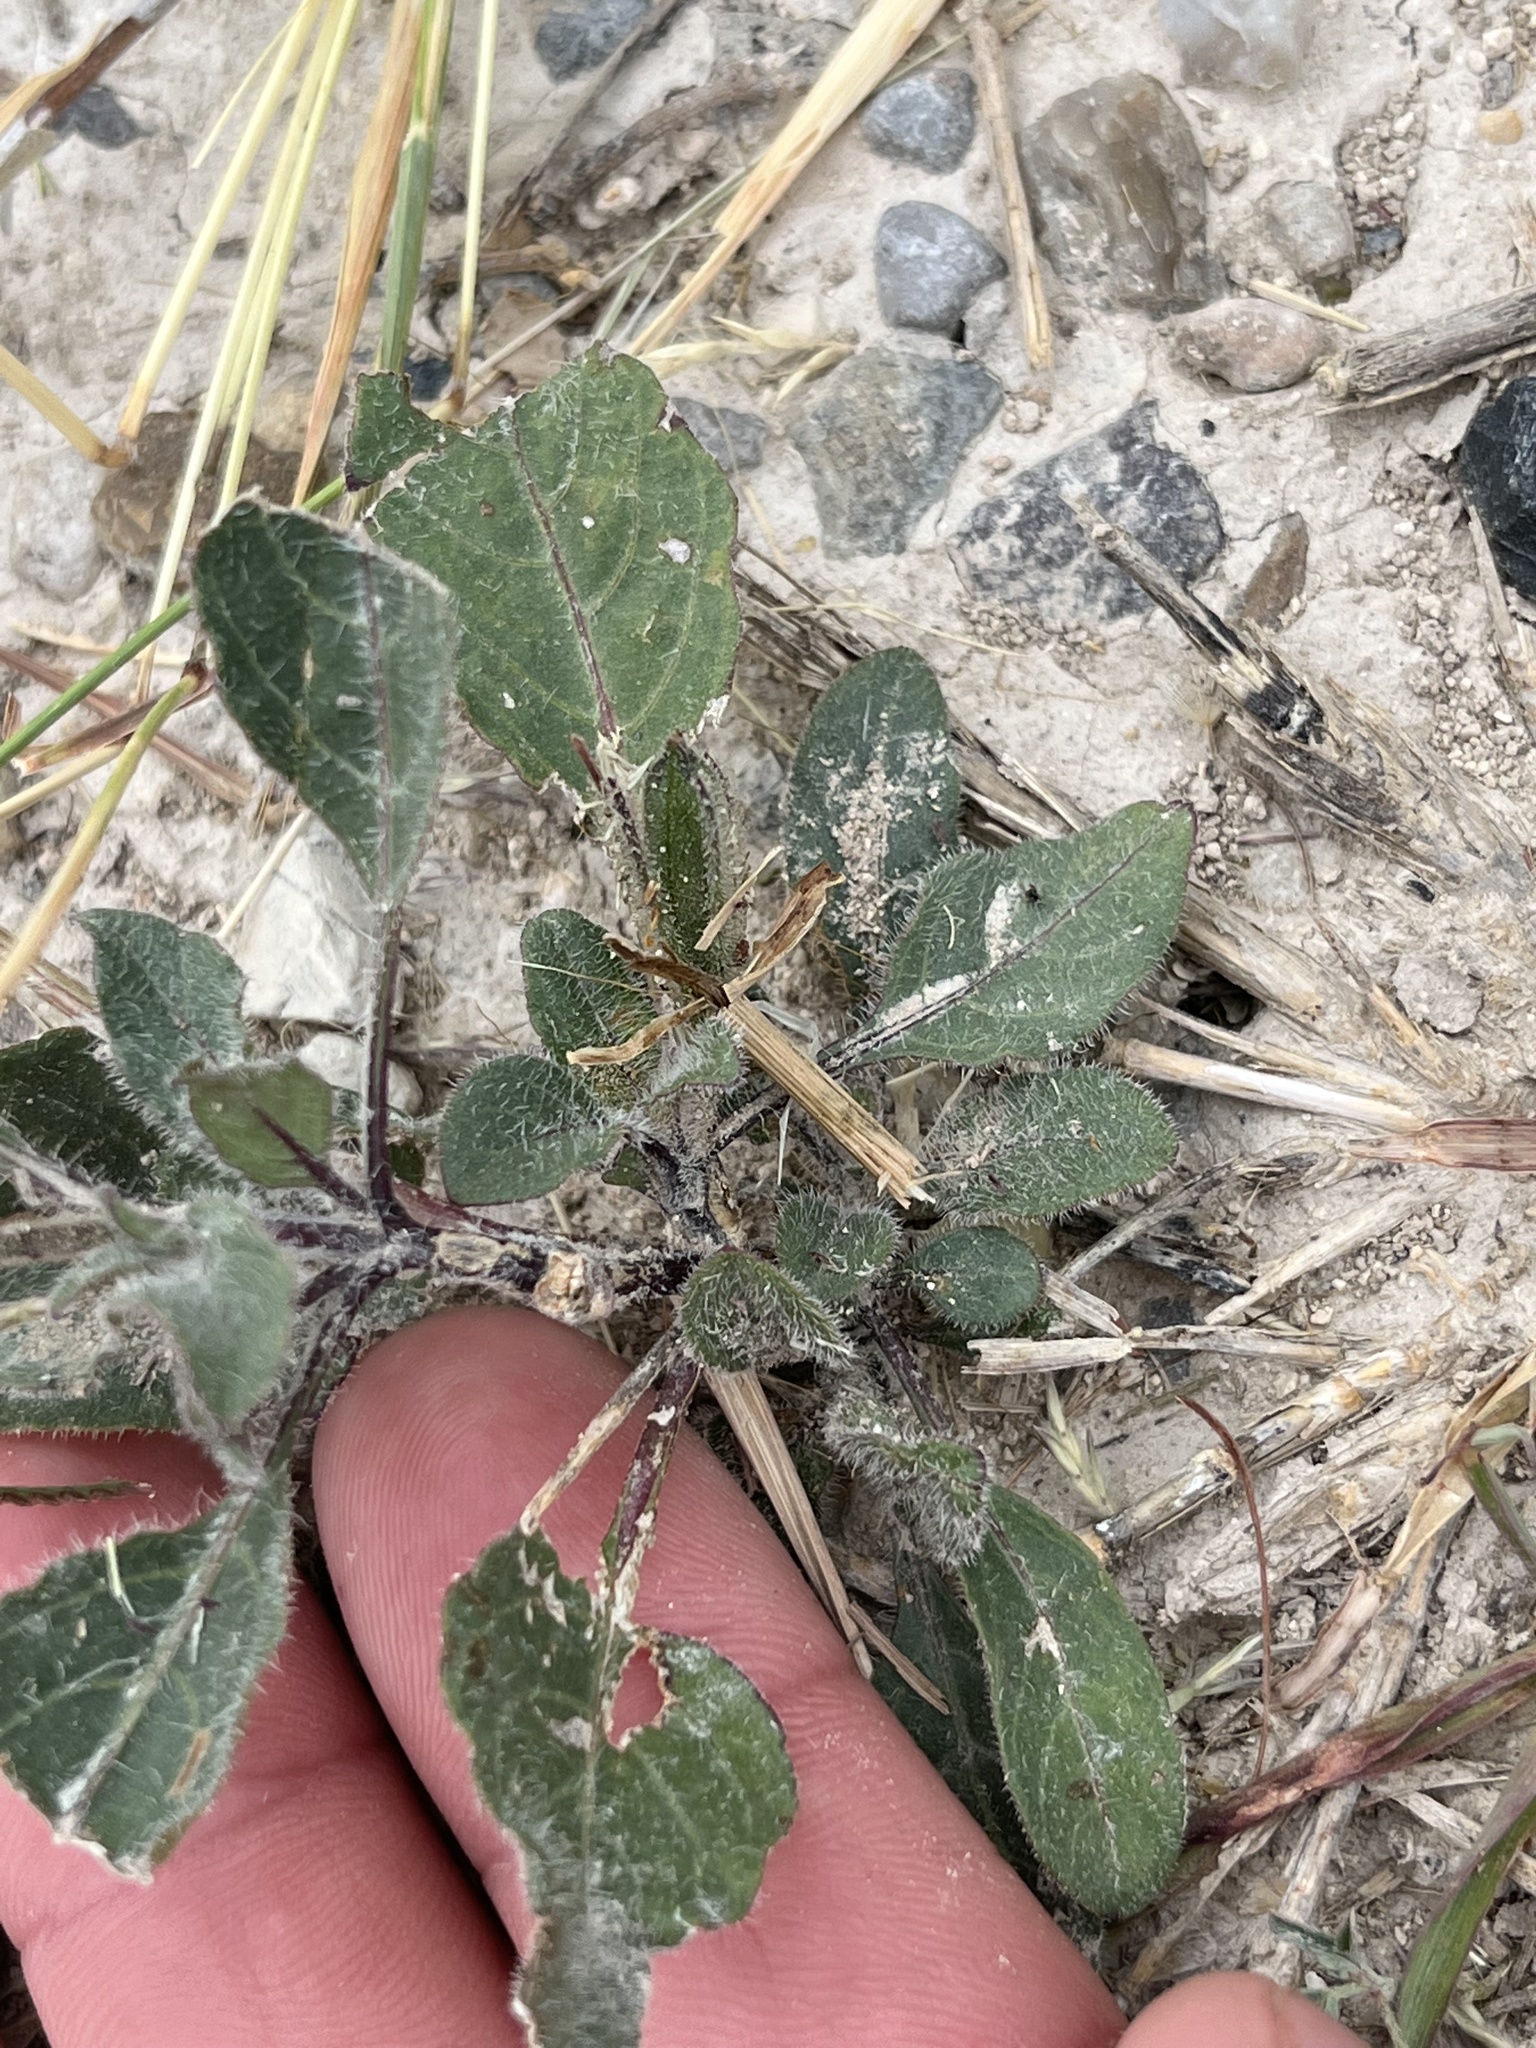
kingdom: Plantae
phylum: Tracheophyta
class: Magnoliopsida
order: Lamiales
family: Acanthaceae
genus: Ruellia
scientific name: Ruellia corzoi
